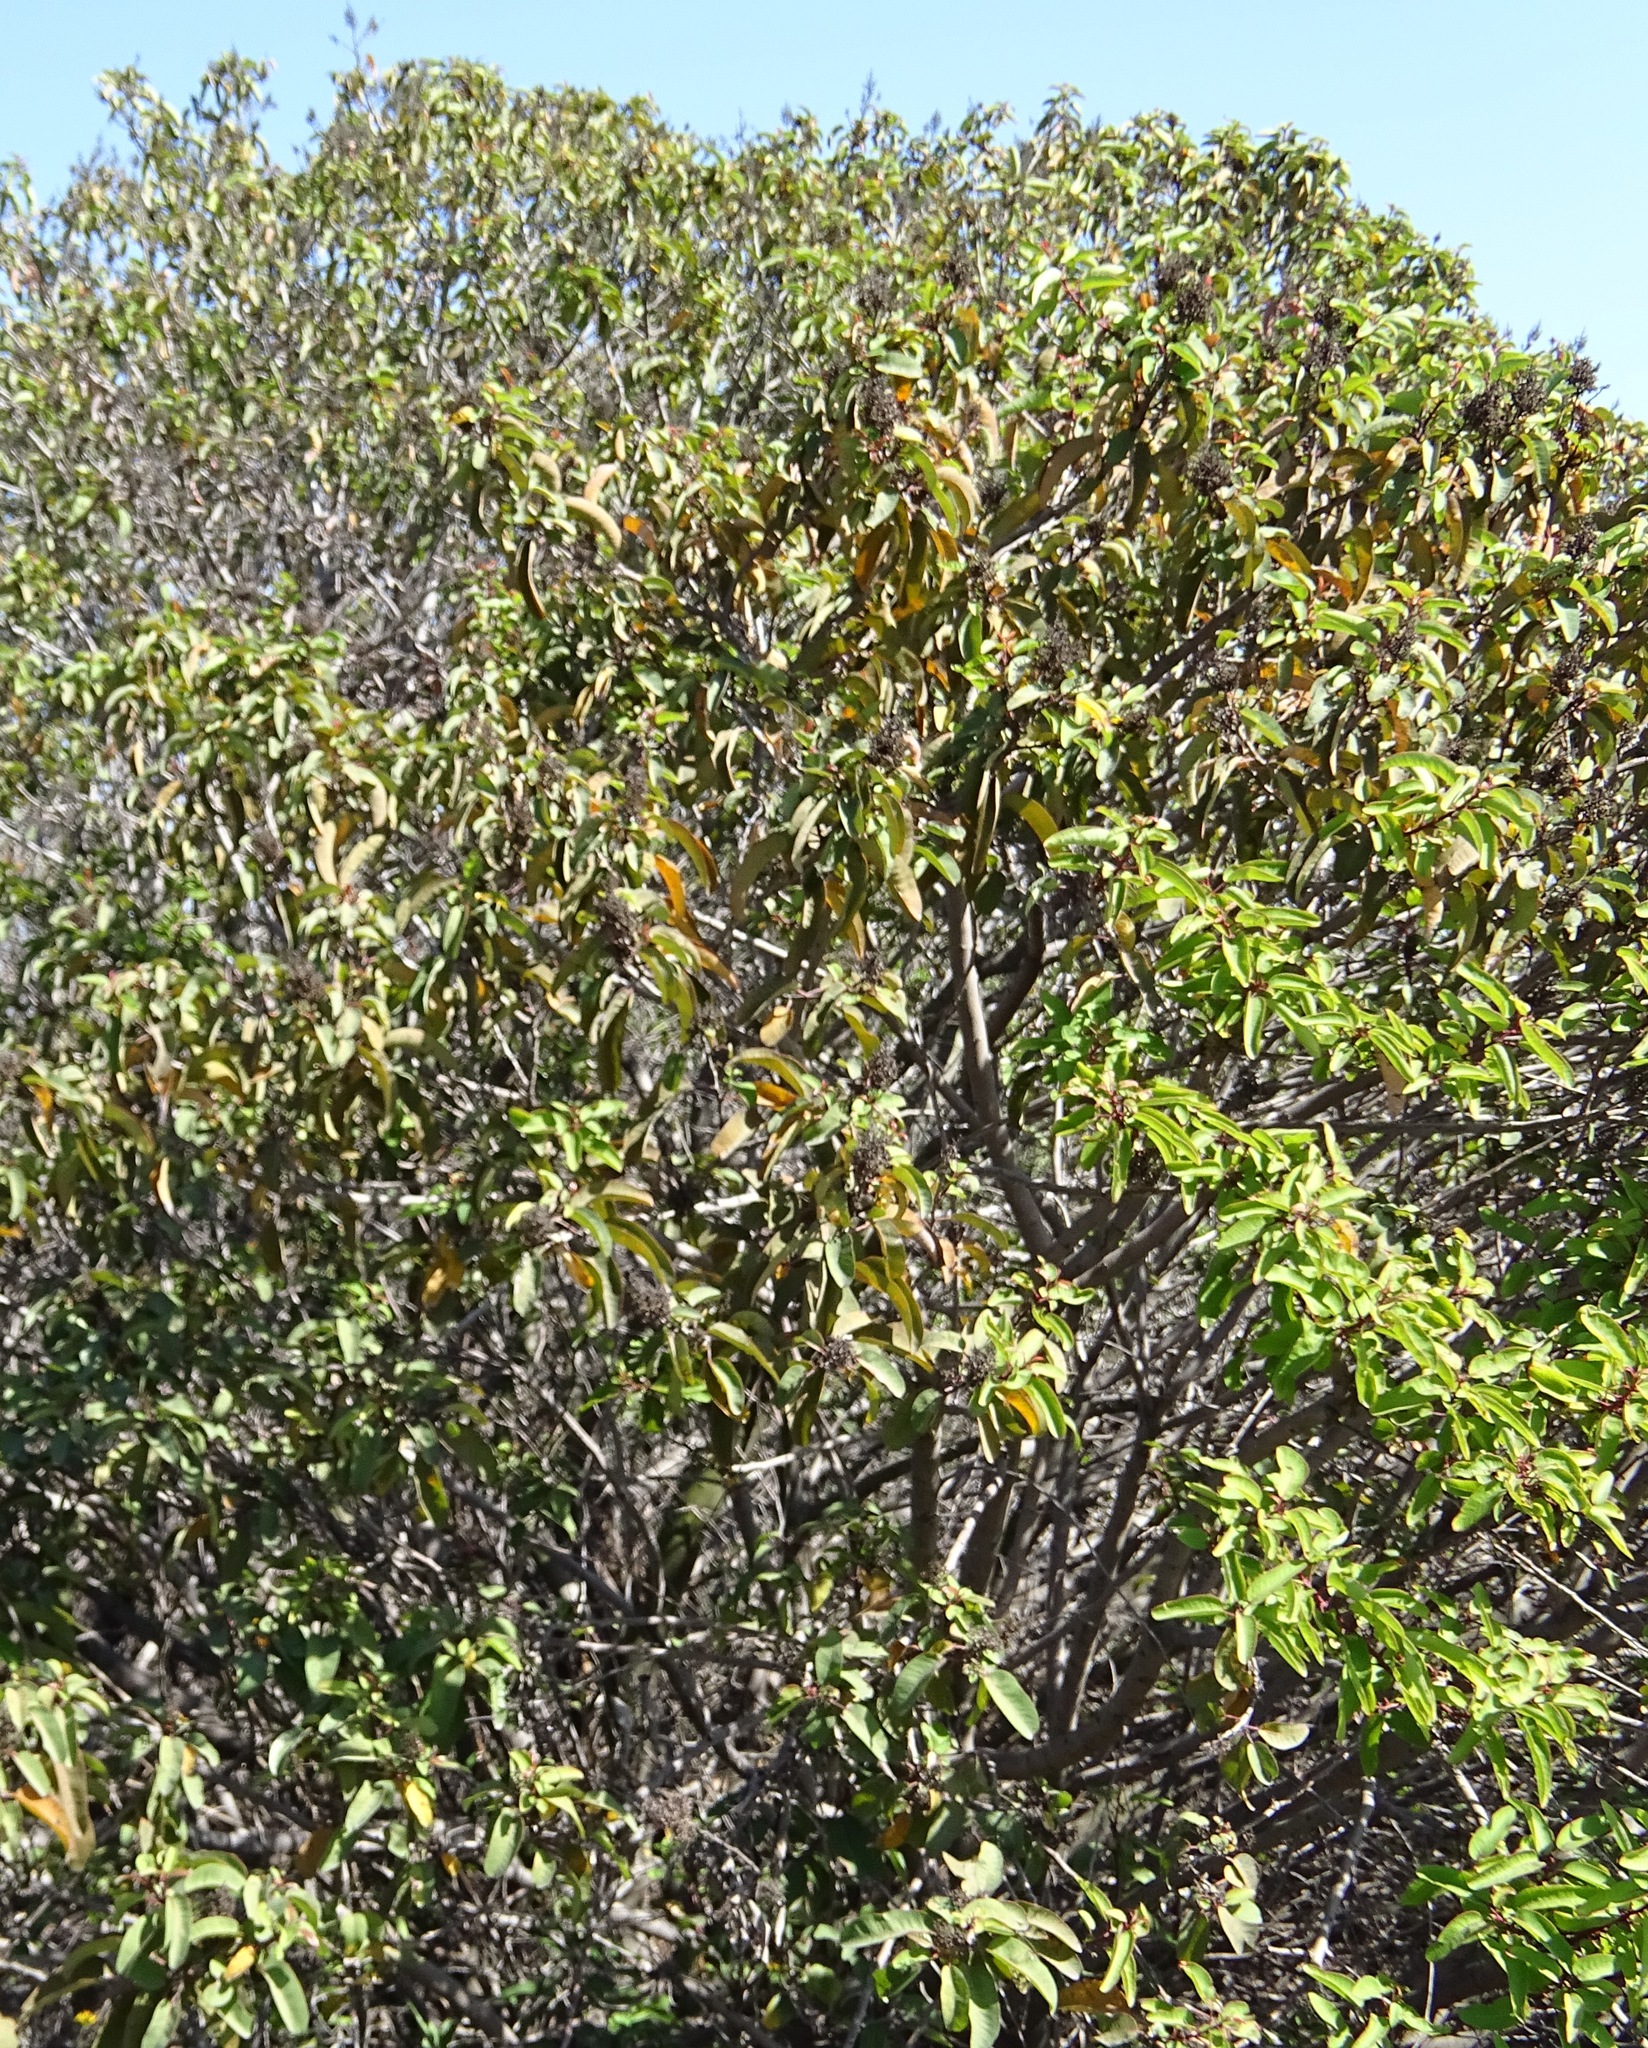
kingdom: Plantae
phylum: Tracheophyta
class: Magnoliopsida
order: Sapindales
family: Anacardiaceae
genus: Malosma
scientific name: Malosma laurina
